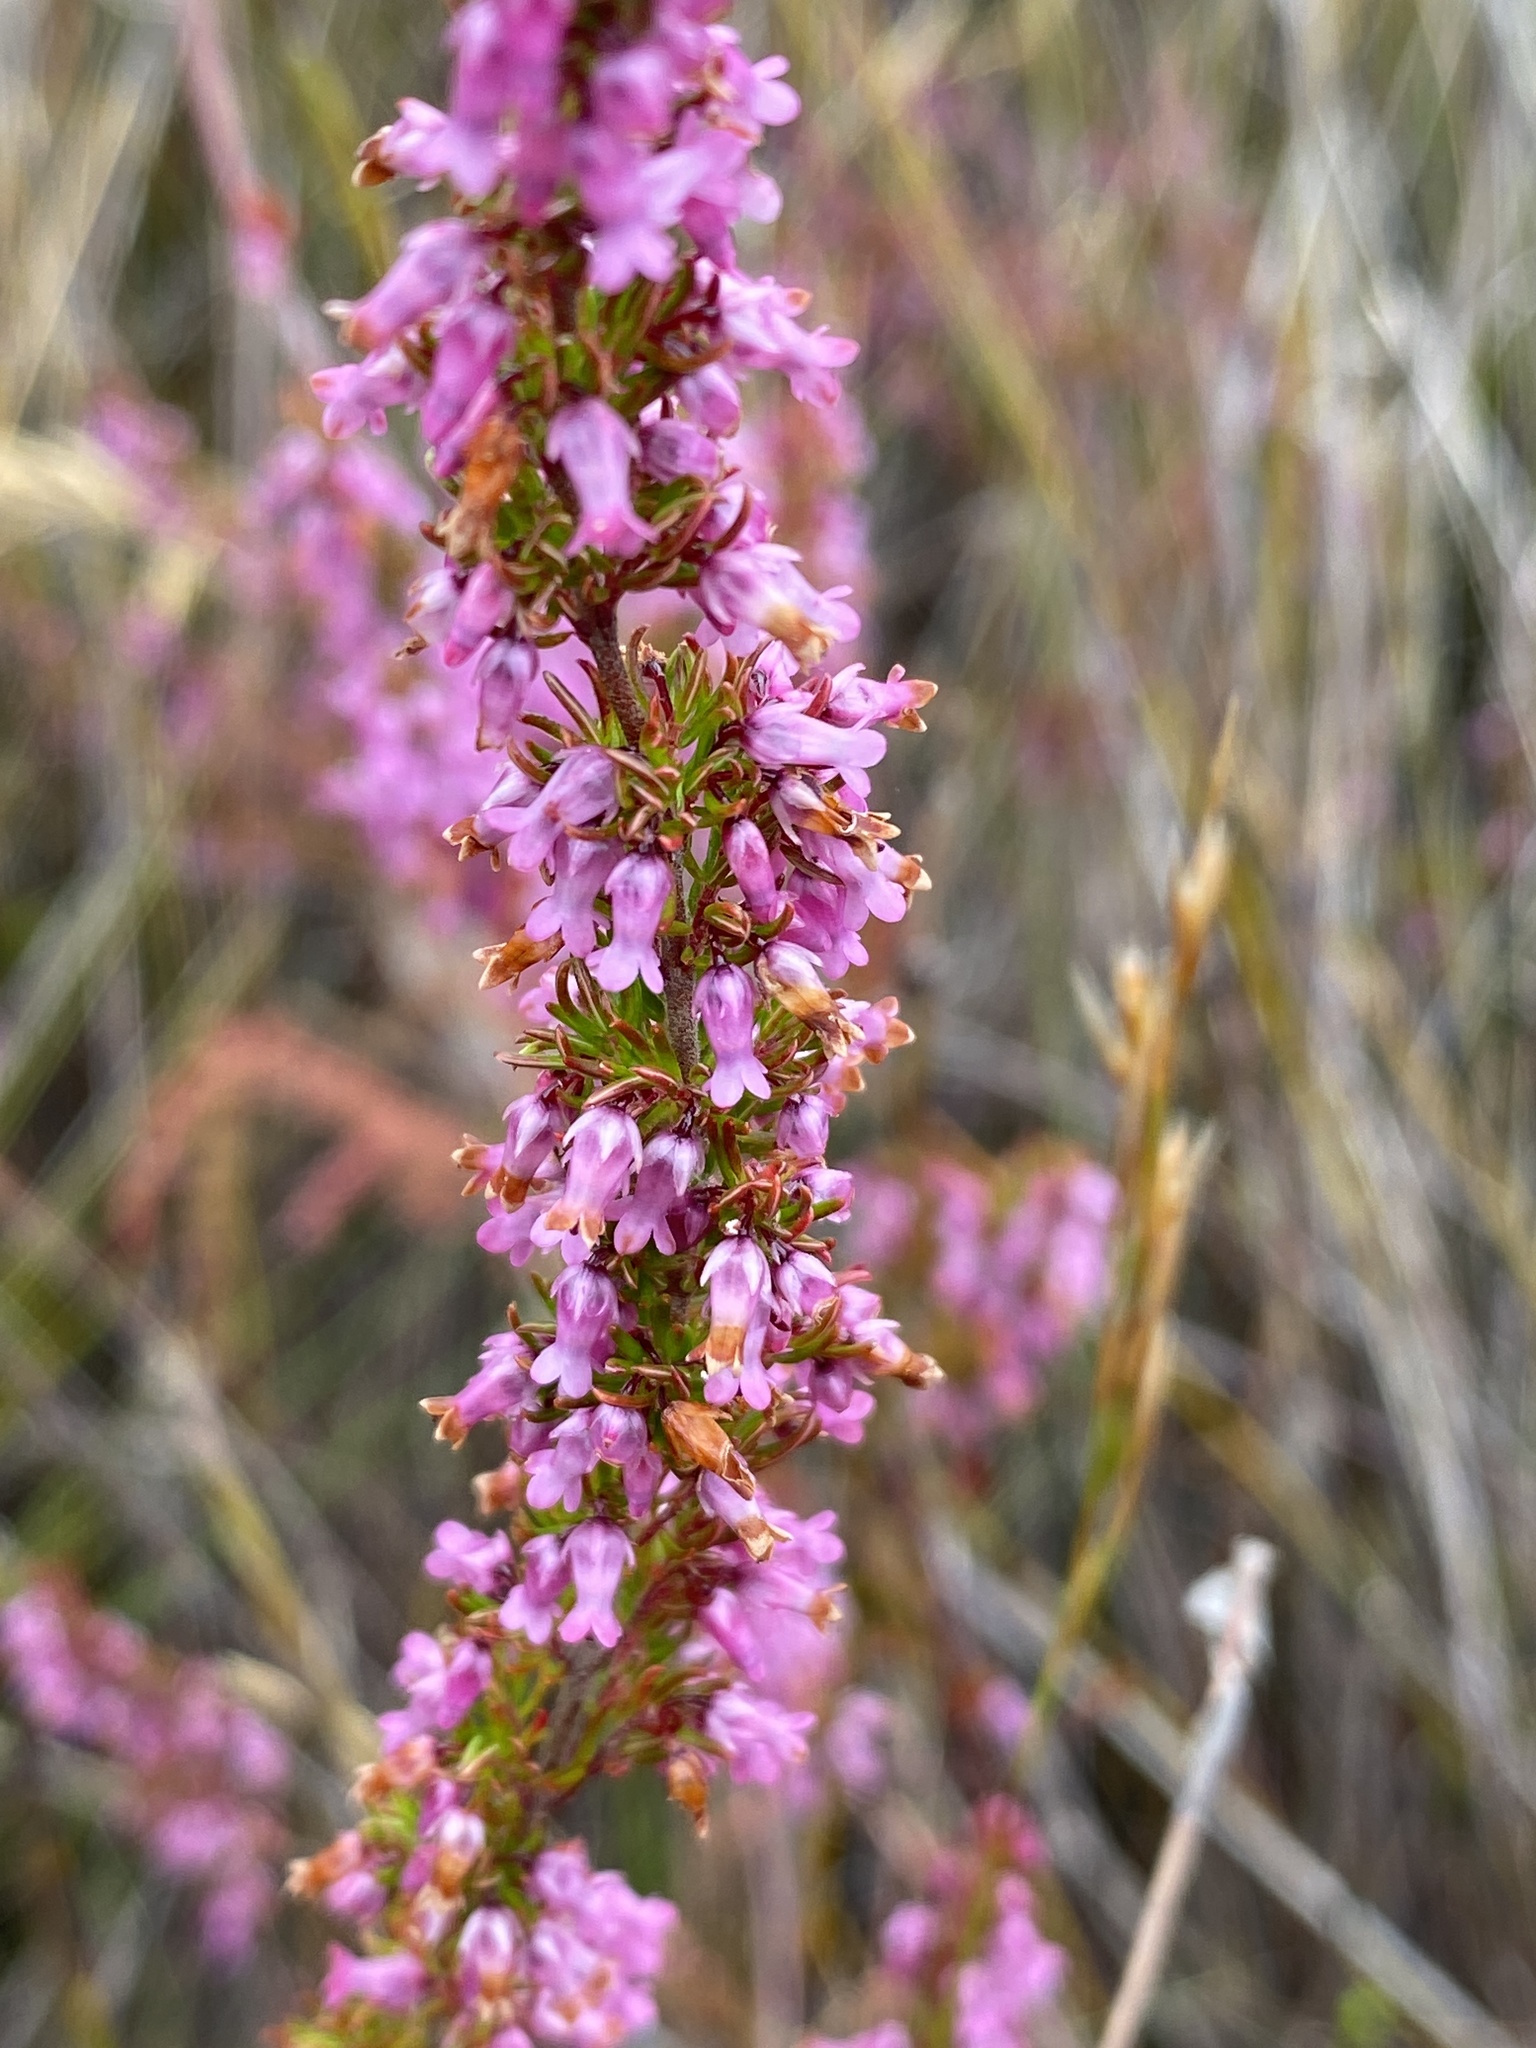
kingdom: Plantae
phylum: Tracheophyta
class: Magnoliopsida
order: Ericales
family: Ericaceae
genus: Erica
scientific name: Erica intervallaris
